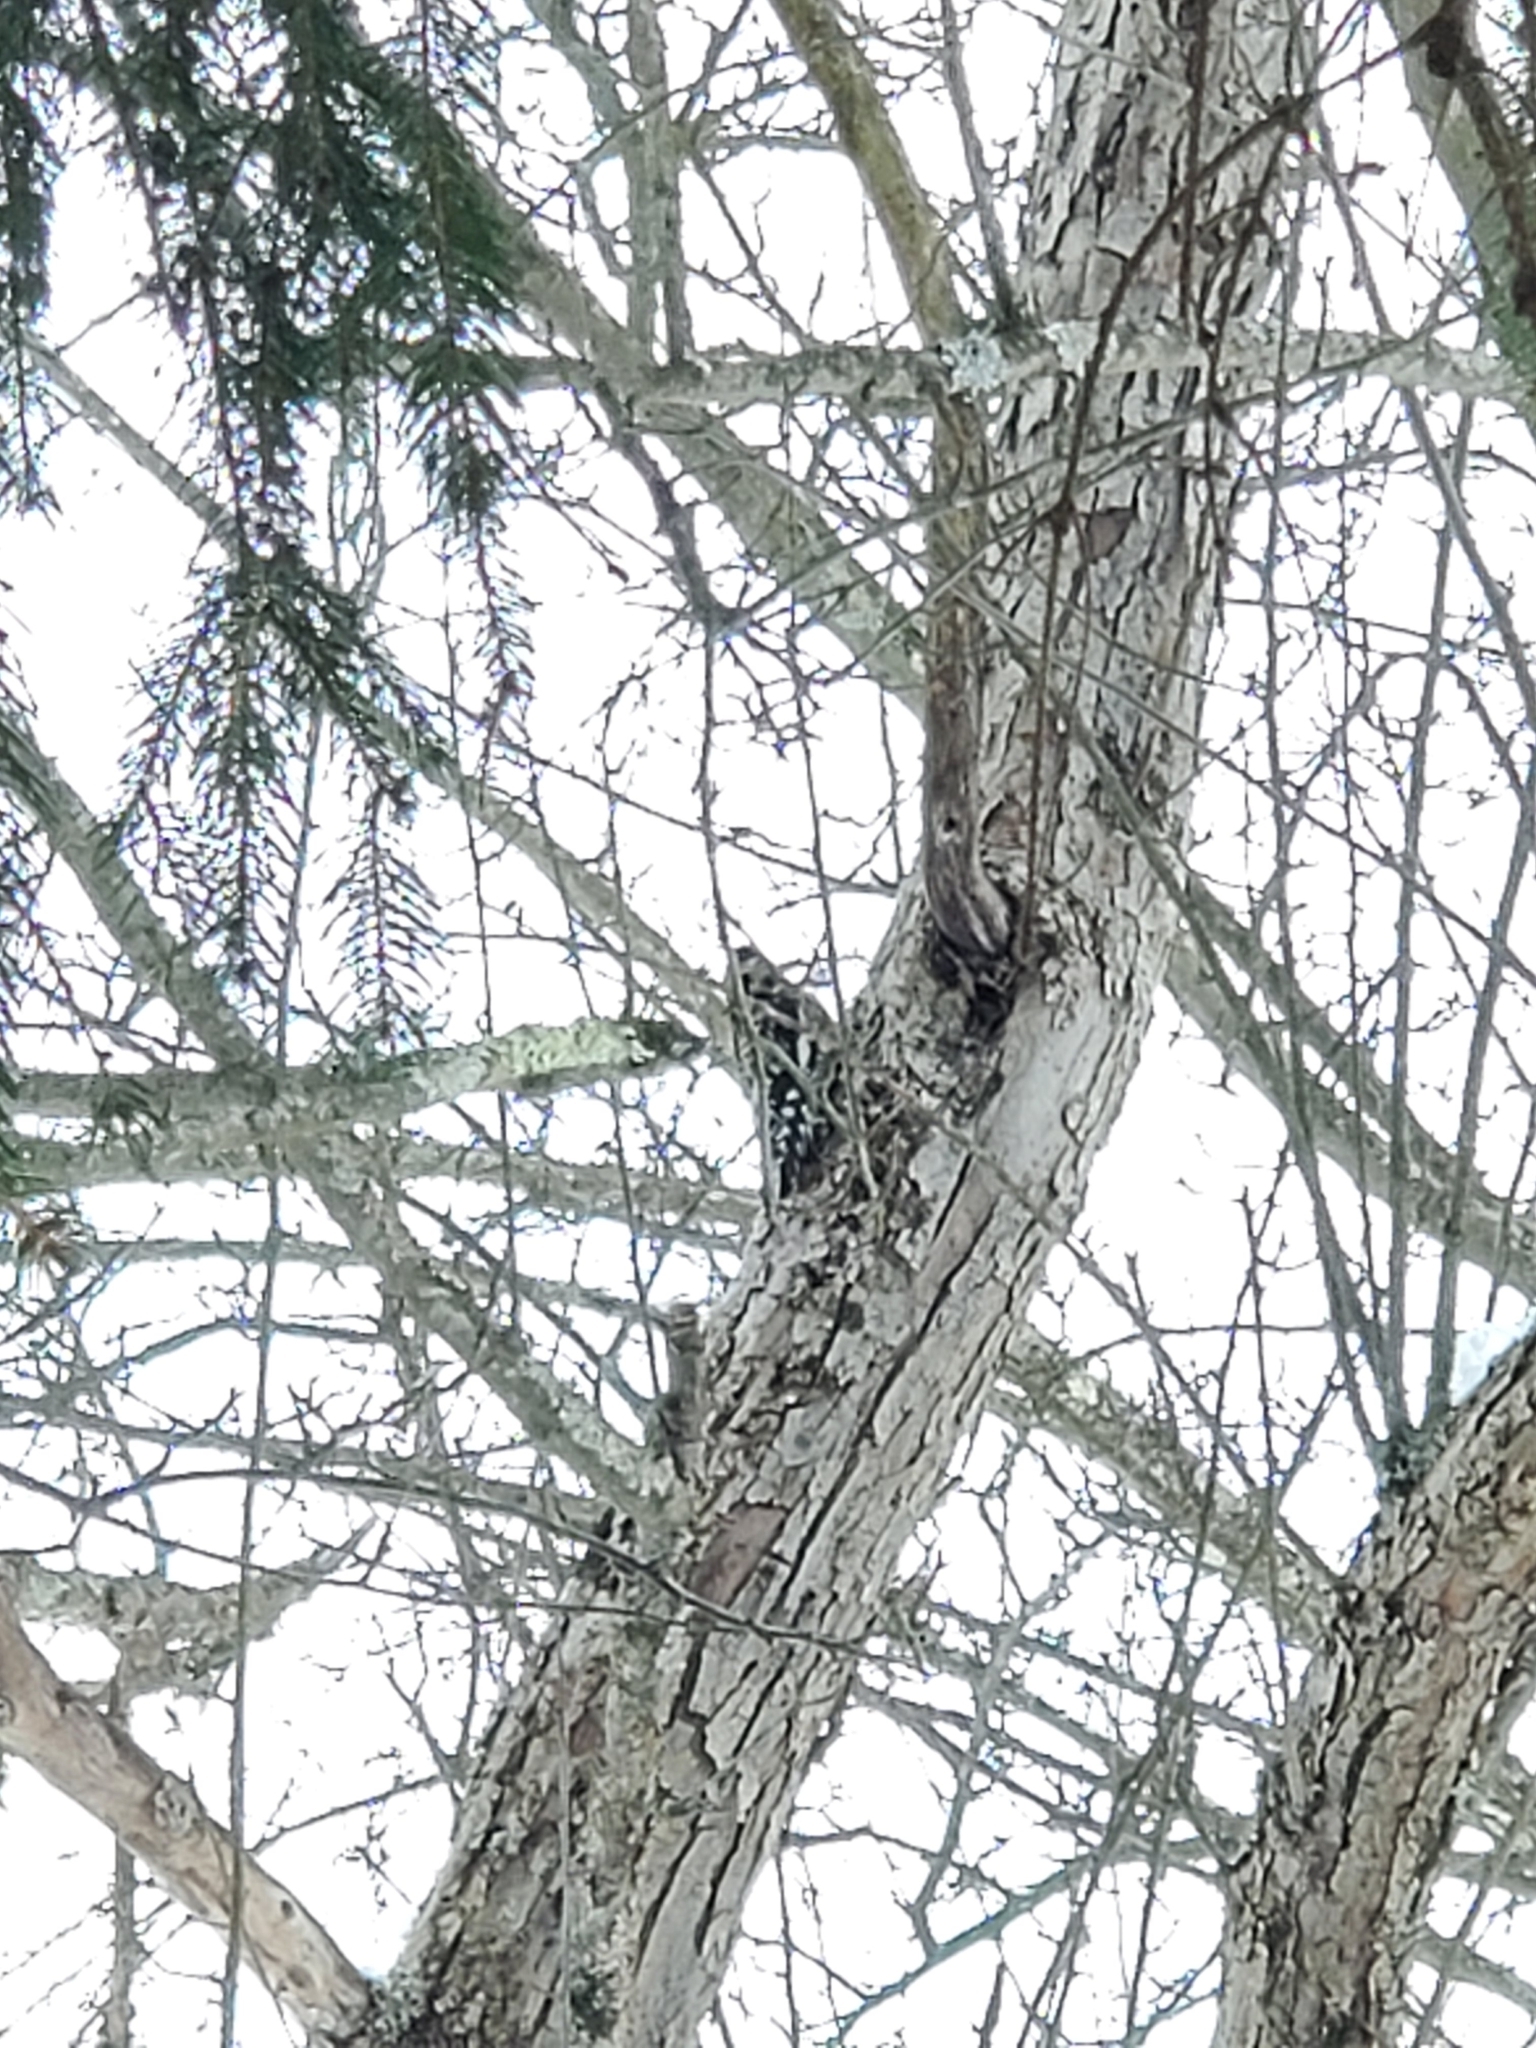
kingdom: Animalia
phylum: Chordata
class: Aves
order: Piciformes
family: Picidae
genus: Sphyrapicus
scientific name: Sphyrapicus varius
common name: Yellow-bellied sapsucker
